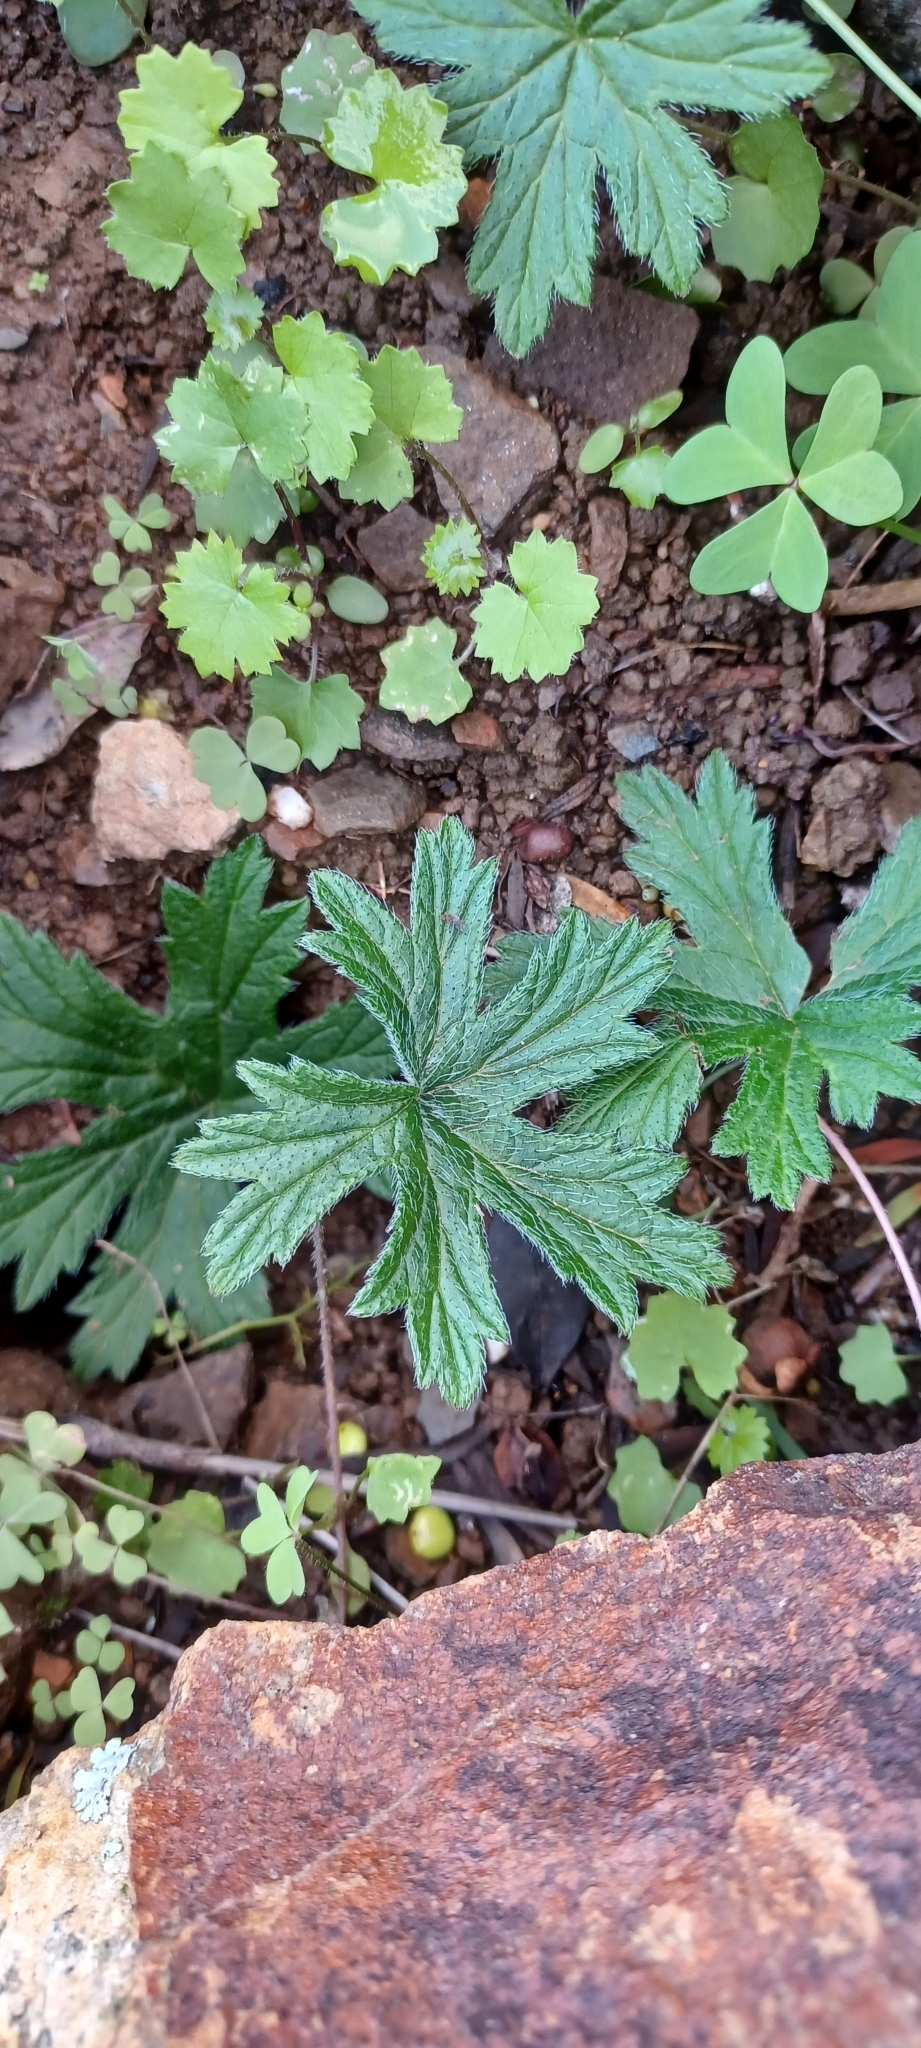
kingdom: Plantae
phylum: Tracheophyta
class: Magnoliopsida
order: Geraniales
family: Geraniaceae
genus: Pelargonium
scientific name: Pelargonium alchemilloides
